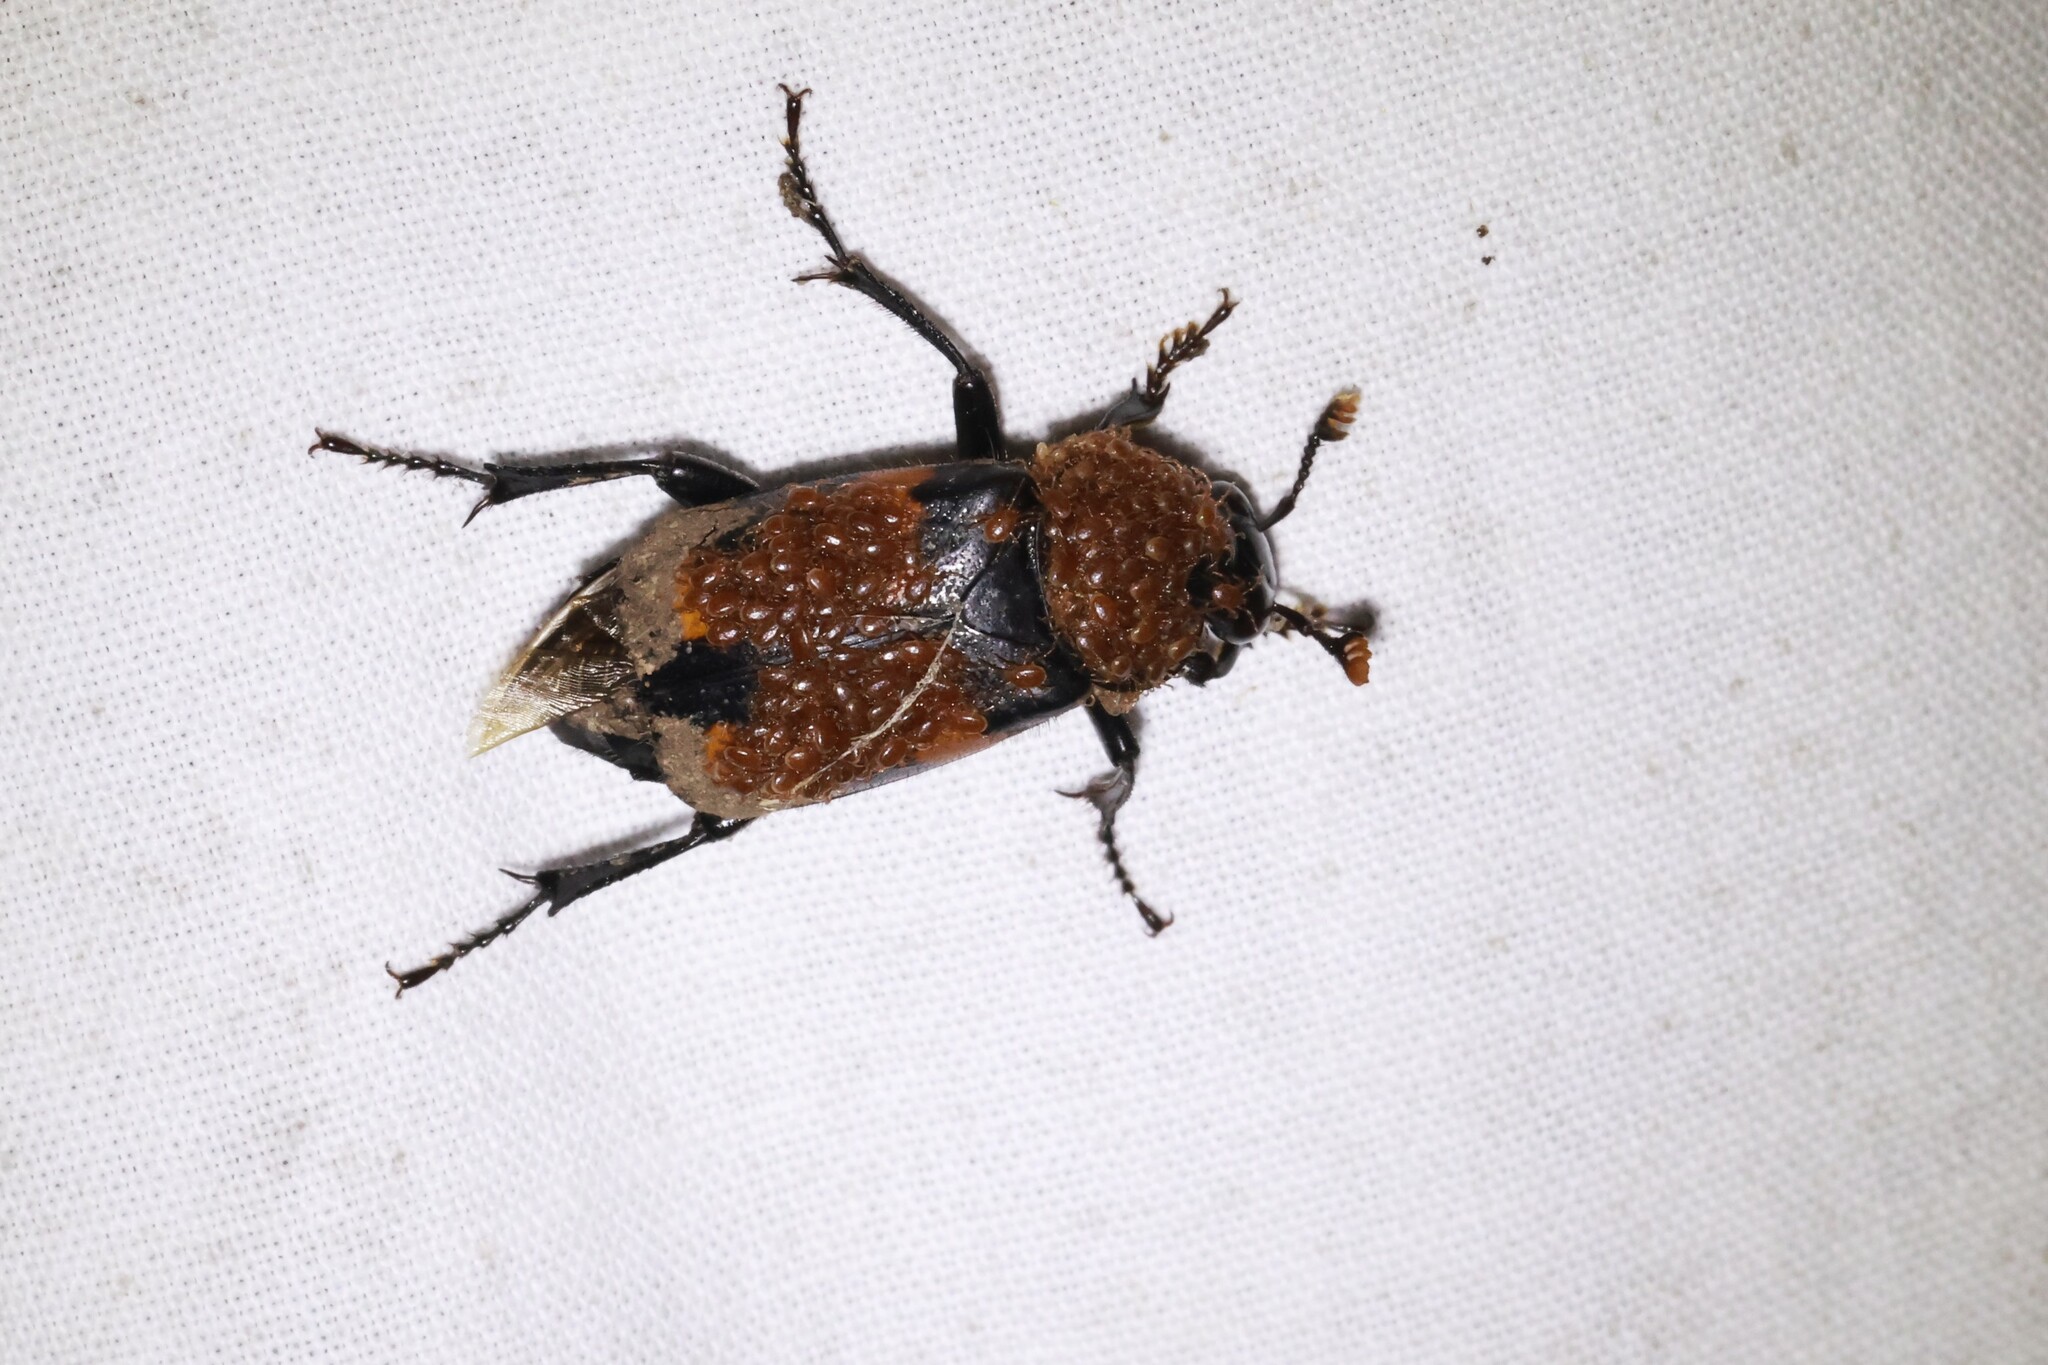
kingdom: Animalia
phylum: Arthropoda
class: Insecta
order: Coleoptera
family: Staphylinidae
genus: Nicrophorus
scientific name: Nicrophorus orbicollis
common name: Roundneck sexton beetle
